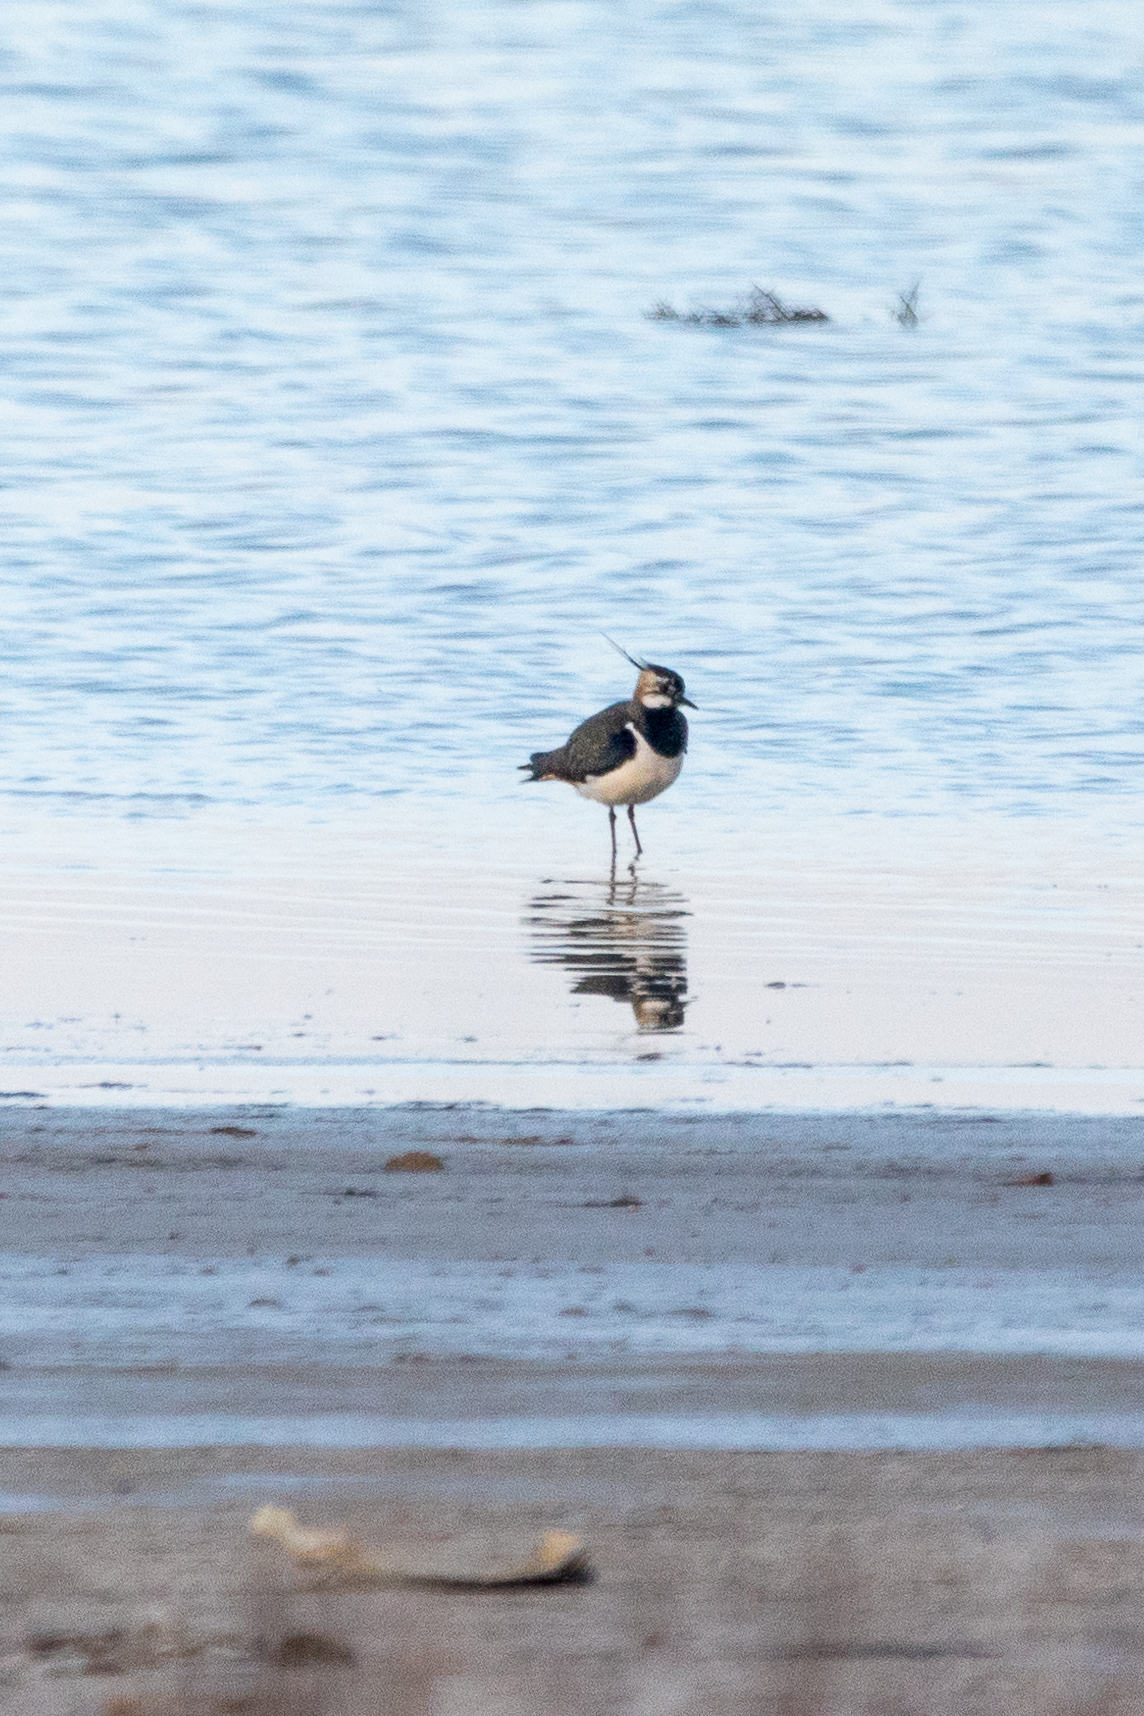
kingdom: Animalia
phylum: Chordata
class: Aves
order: Charadriiformes
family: Charadriidae
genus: Vanellus
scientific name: Vanellus vanellus
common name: Northern lapwing
